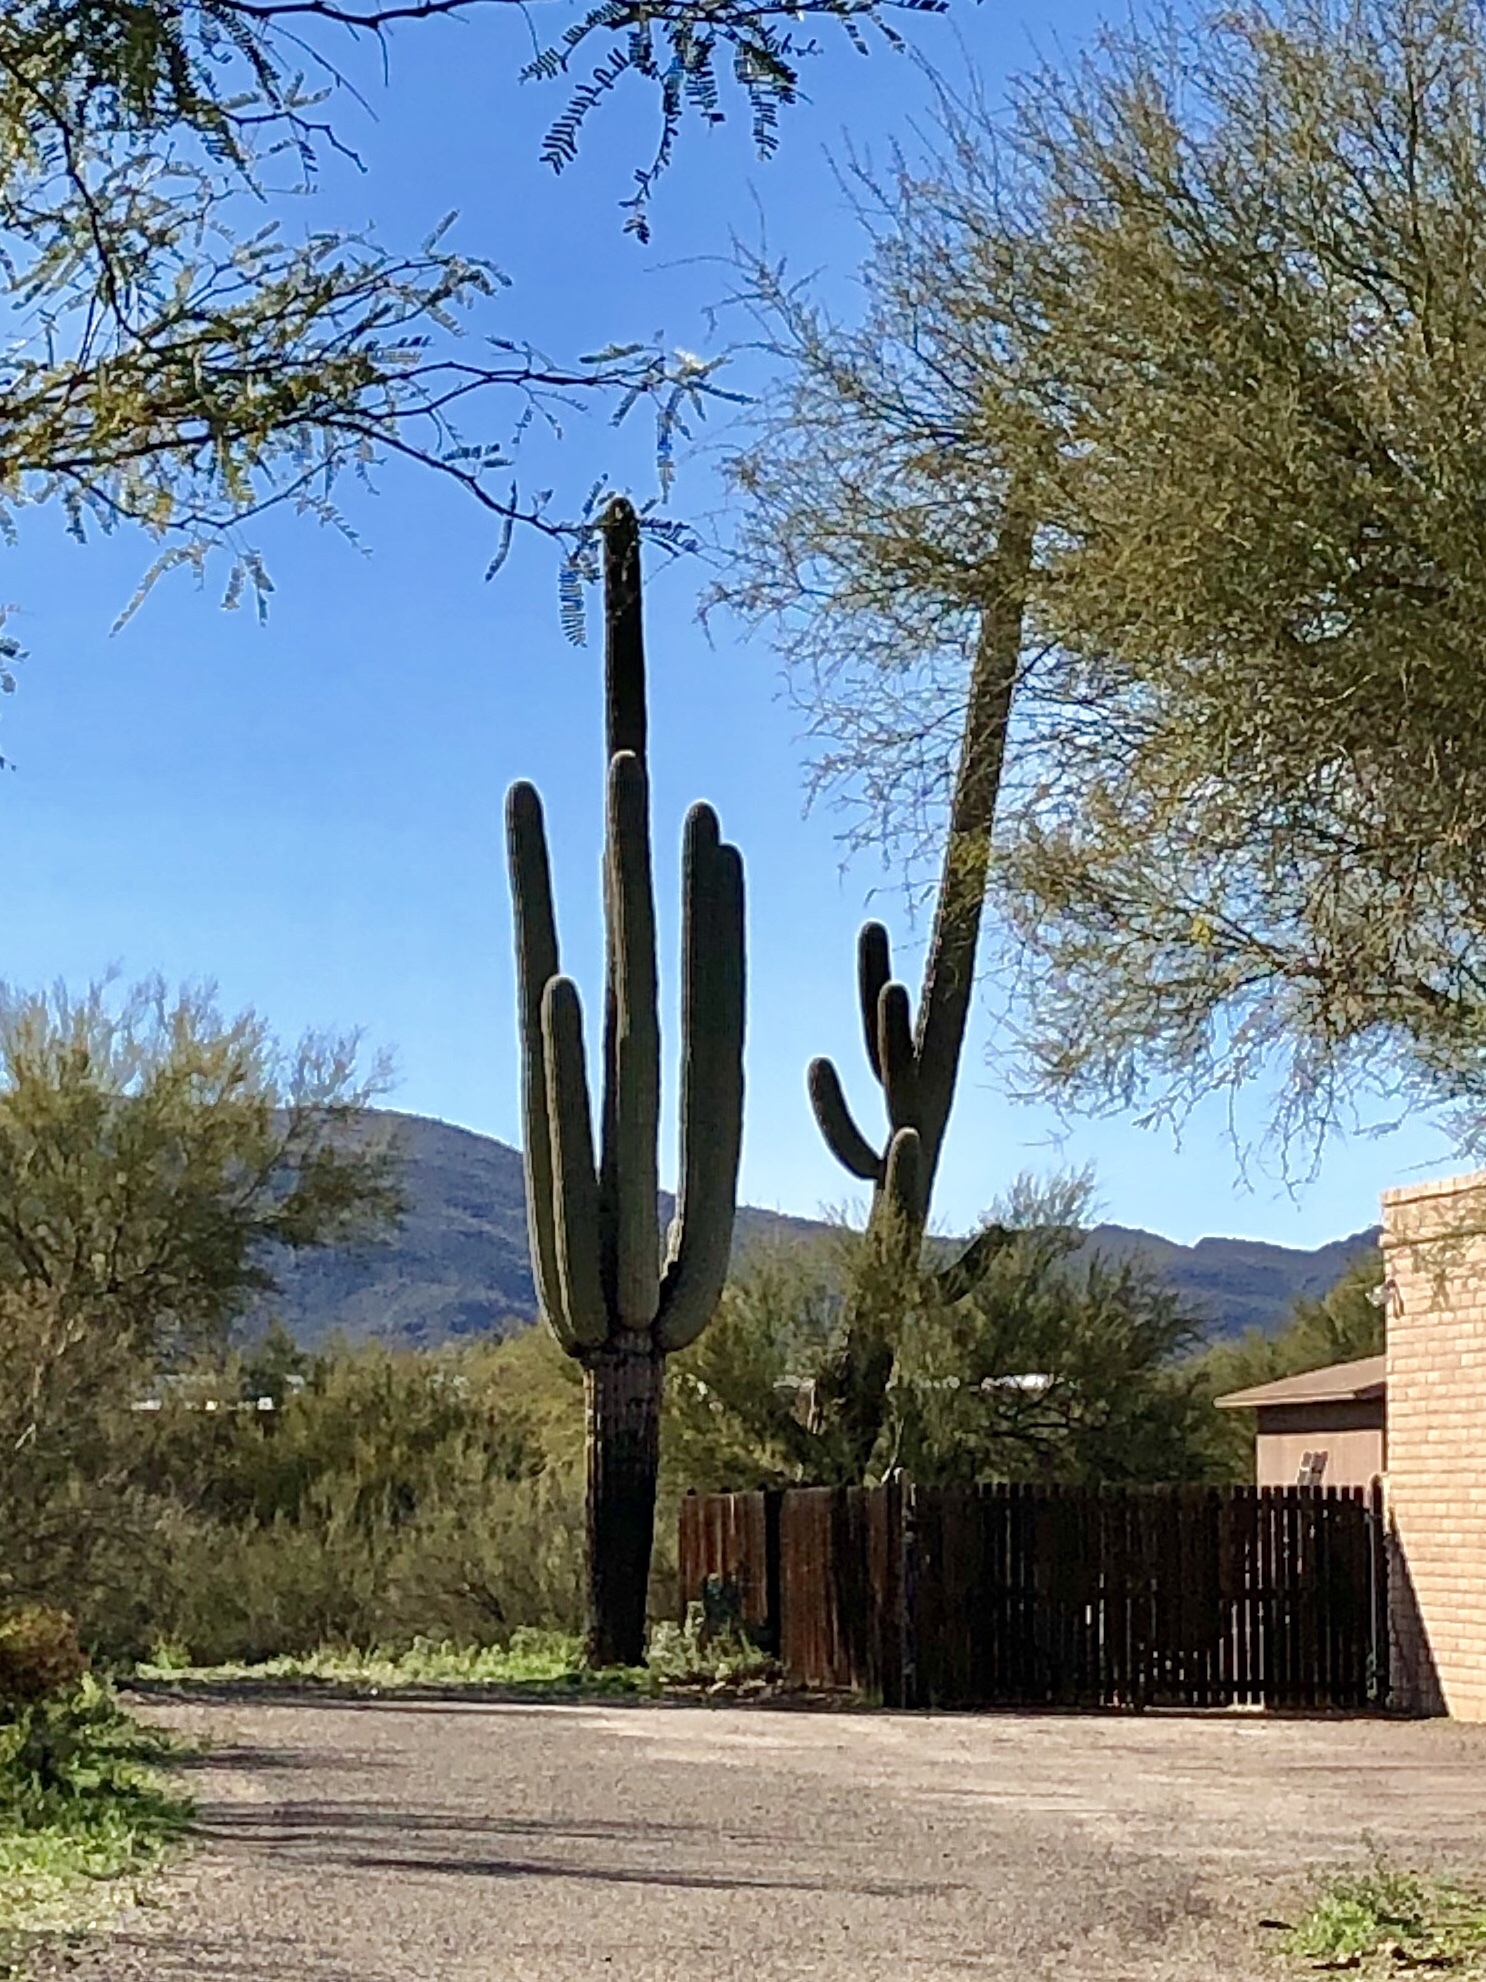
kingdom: Plantae
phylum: Tracheophyta
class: Magnoliopsida
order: Caryophyllales
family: Cactaceae
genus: Carnegiea
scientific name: Carnegiea gigantea
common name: Saguaro
